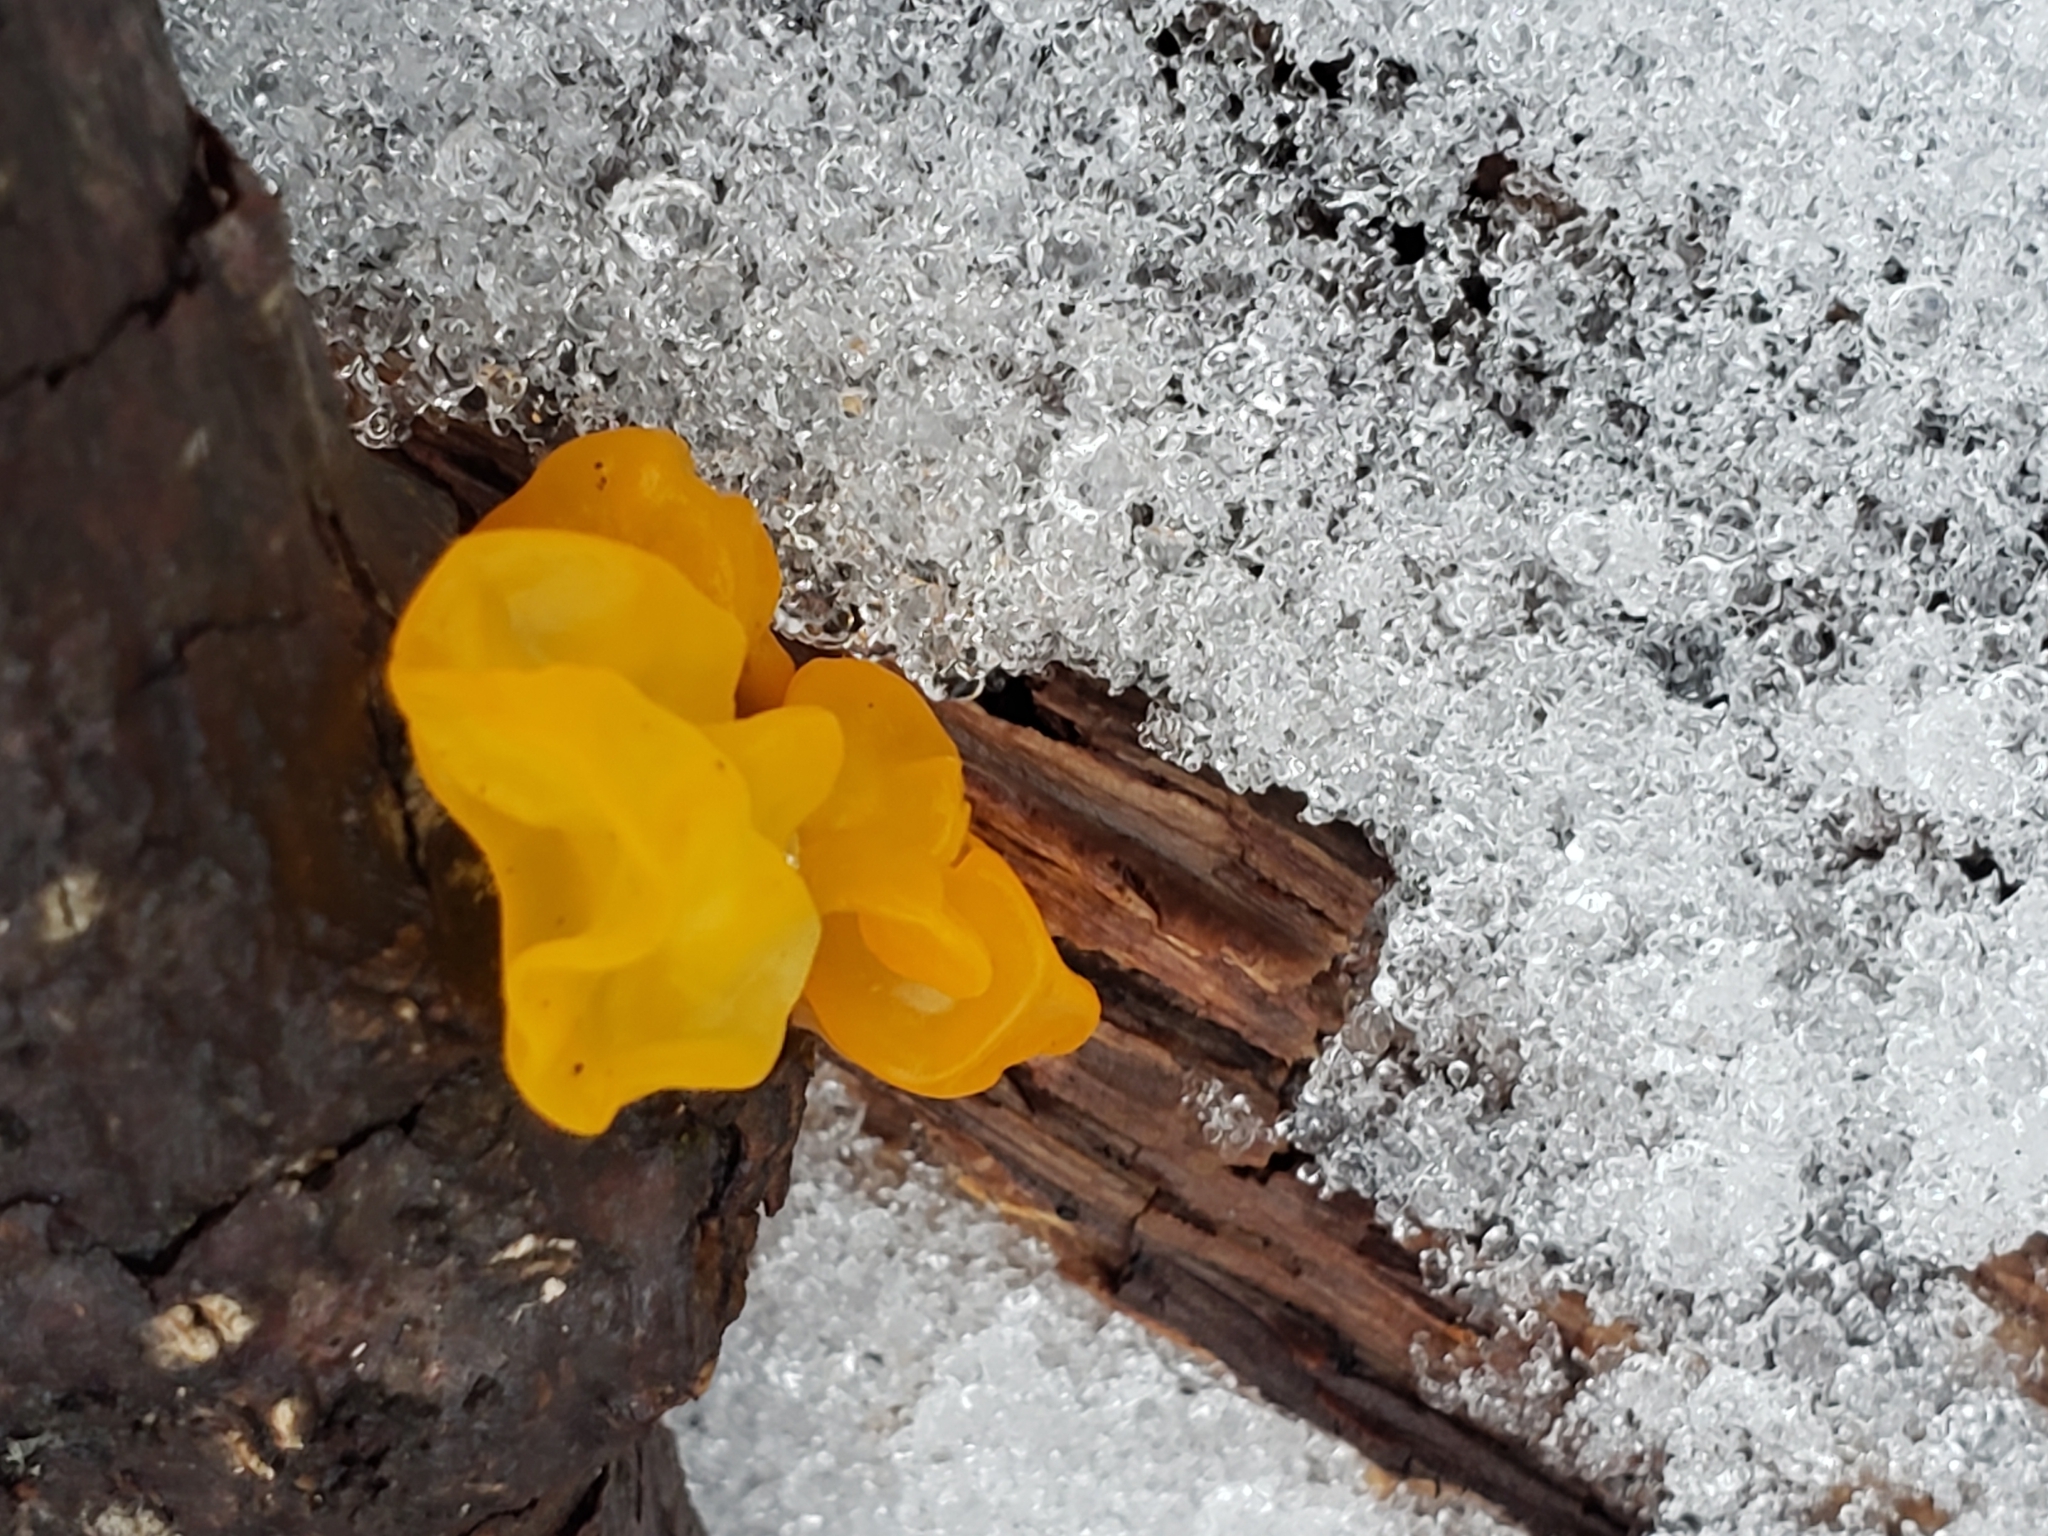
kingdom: Fungi
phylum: Basidiomycota
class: Tremellomycetes
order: Tremellales
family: Tremellaceae
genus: Tremella
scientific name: Tremella mesenterica
